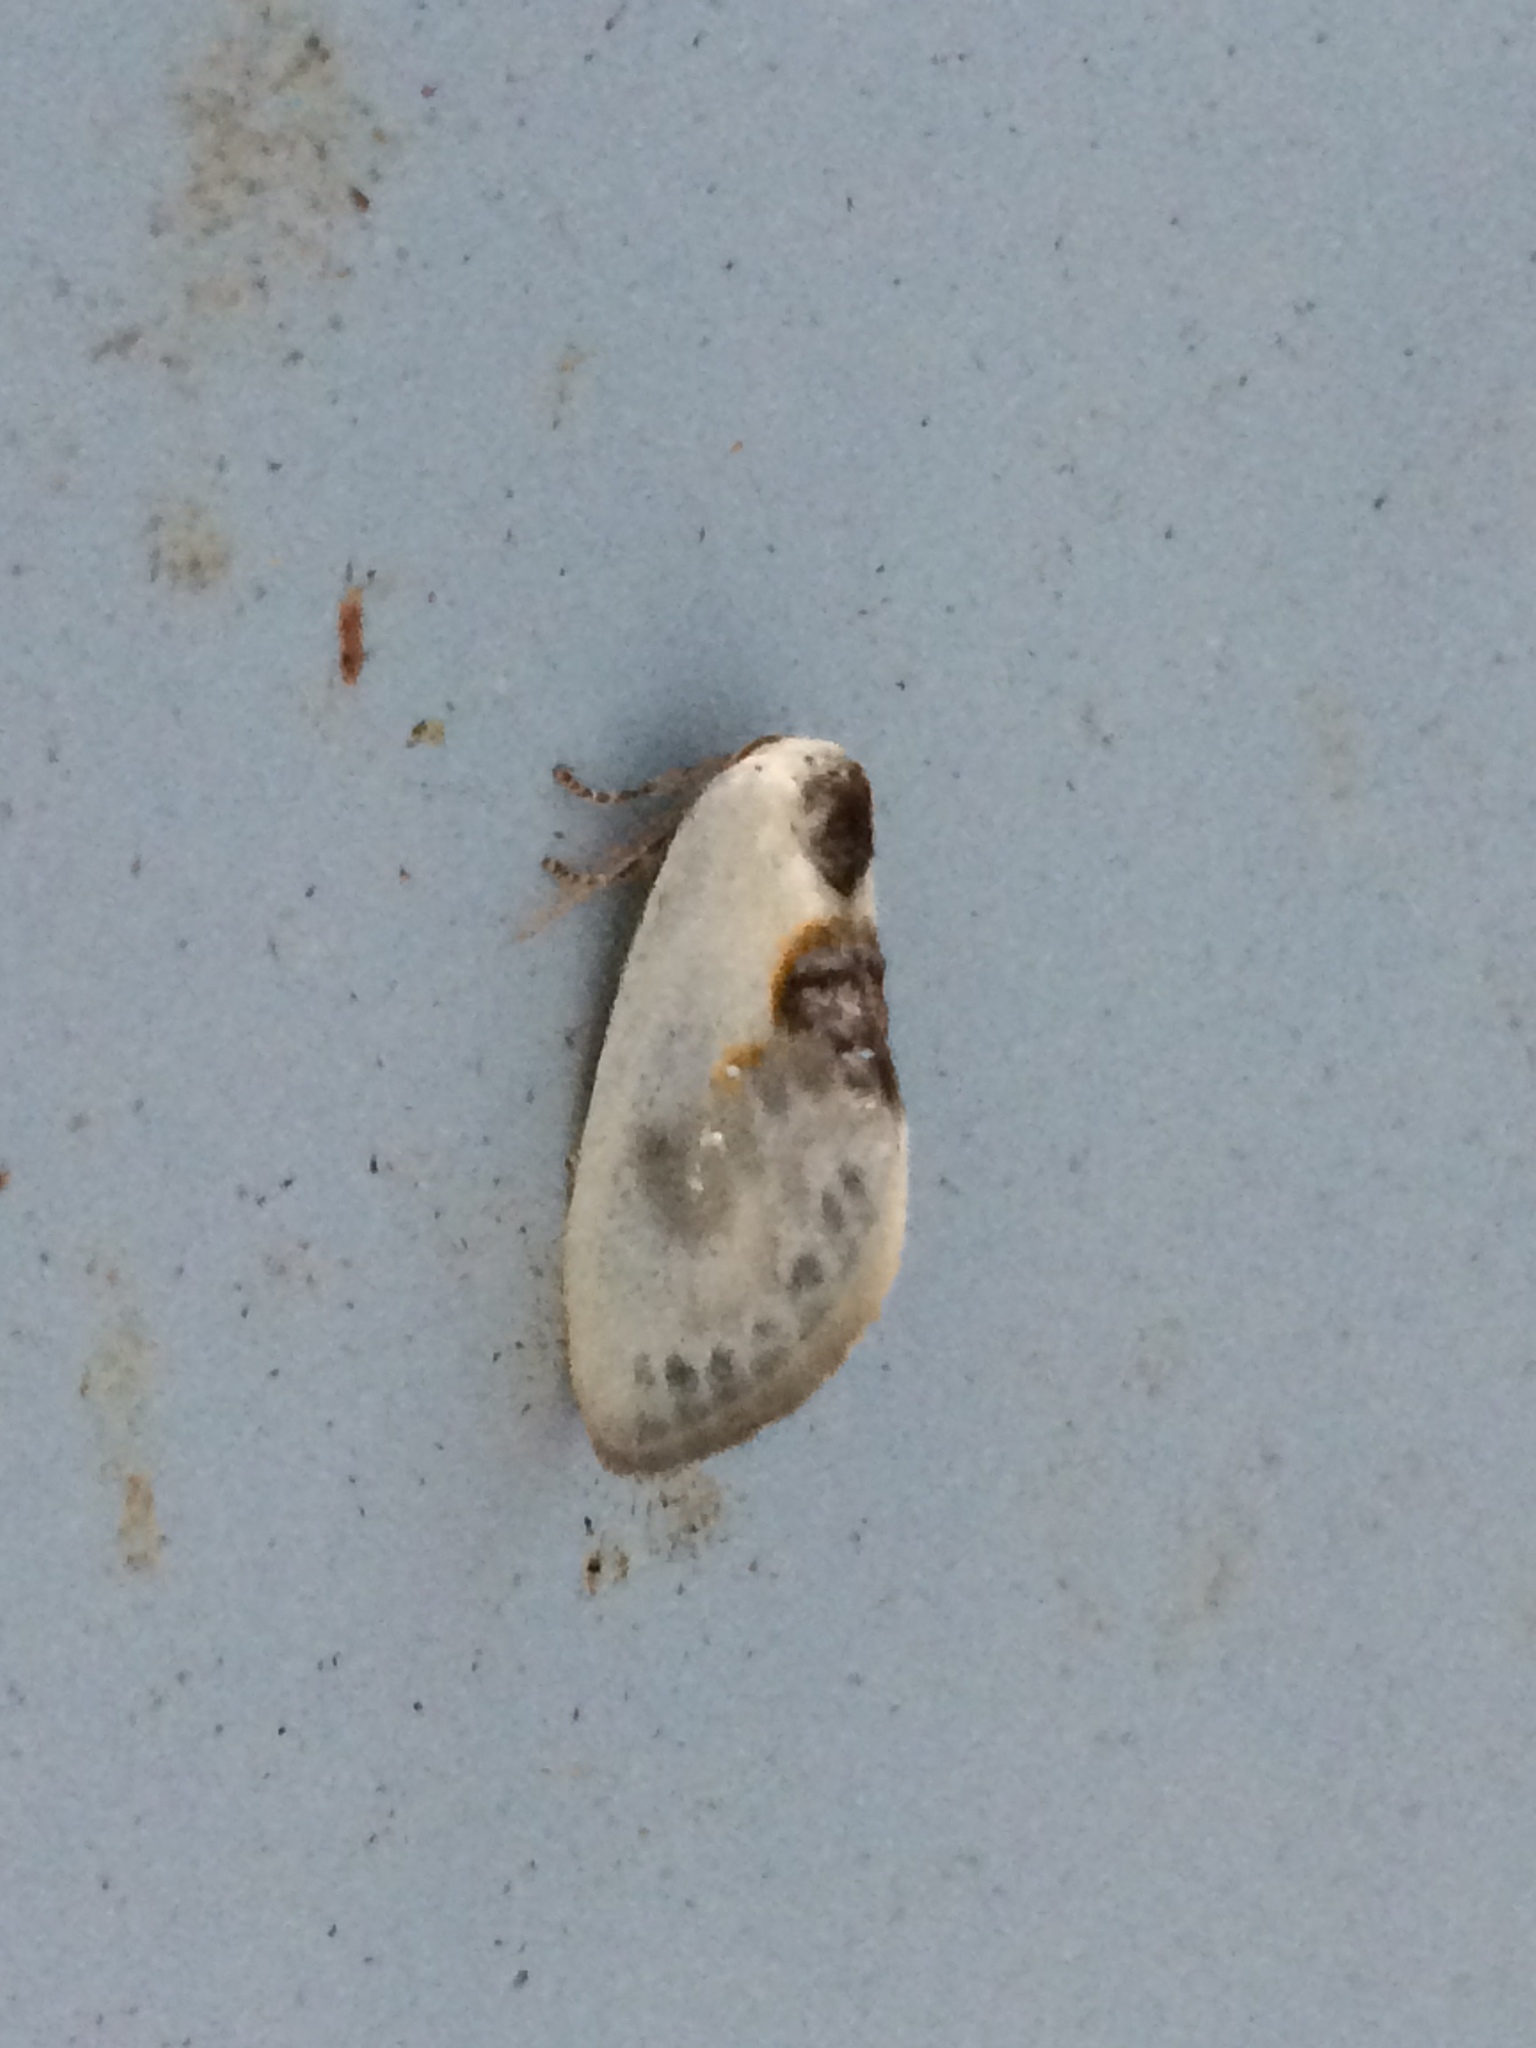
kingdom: Animalia
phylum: Arthropoda
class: Insecta
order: Lepidoptera
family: Drepanidae
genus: Cilix
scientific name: Cilix glaucata
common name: Chinese character
